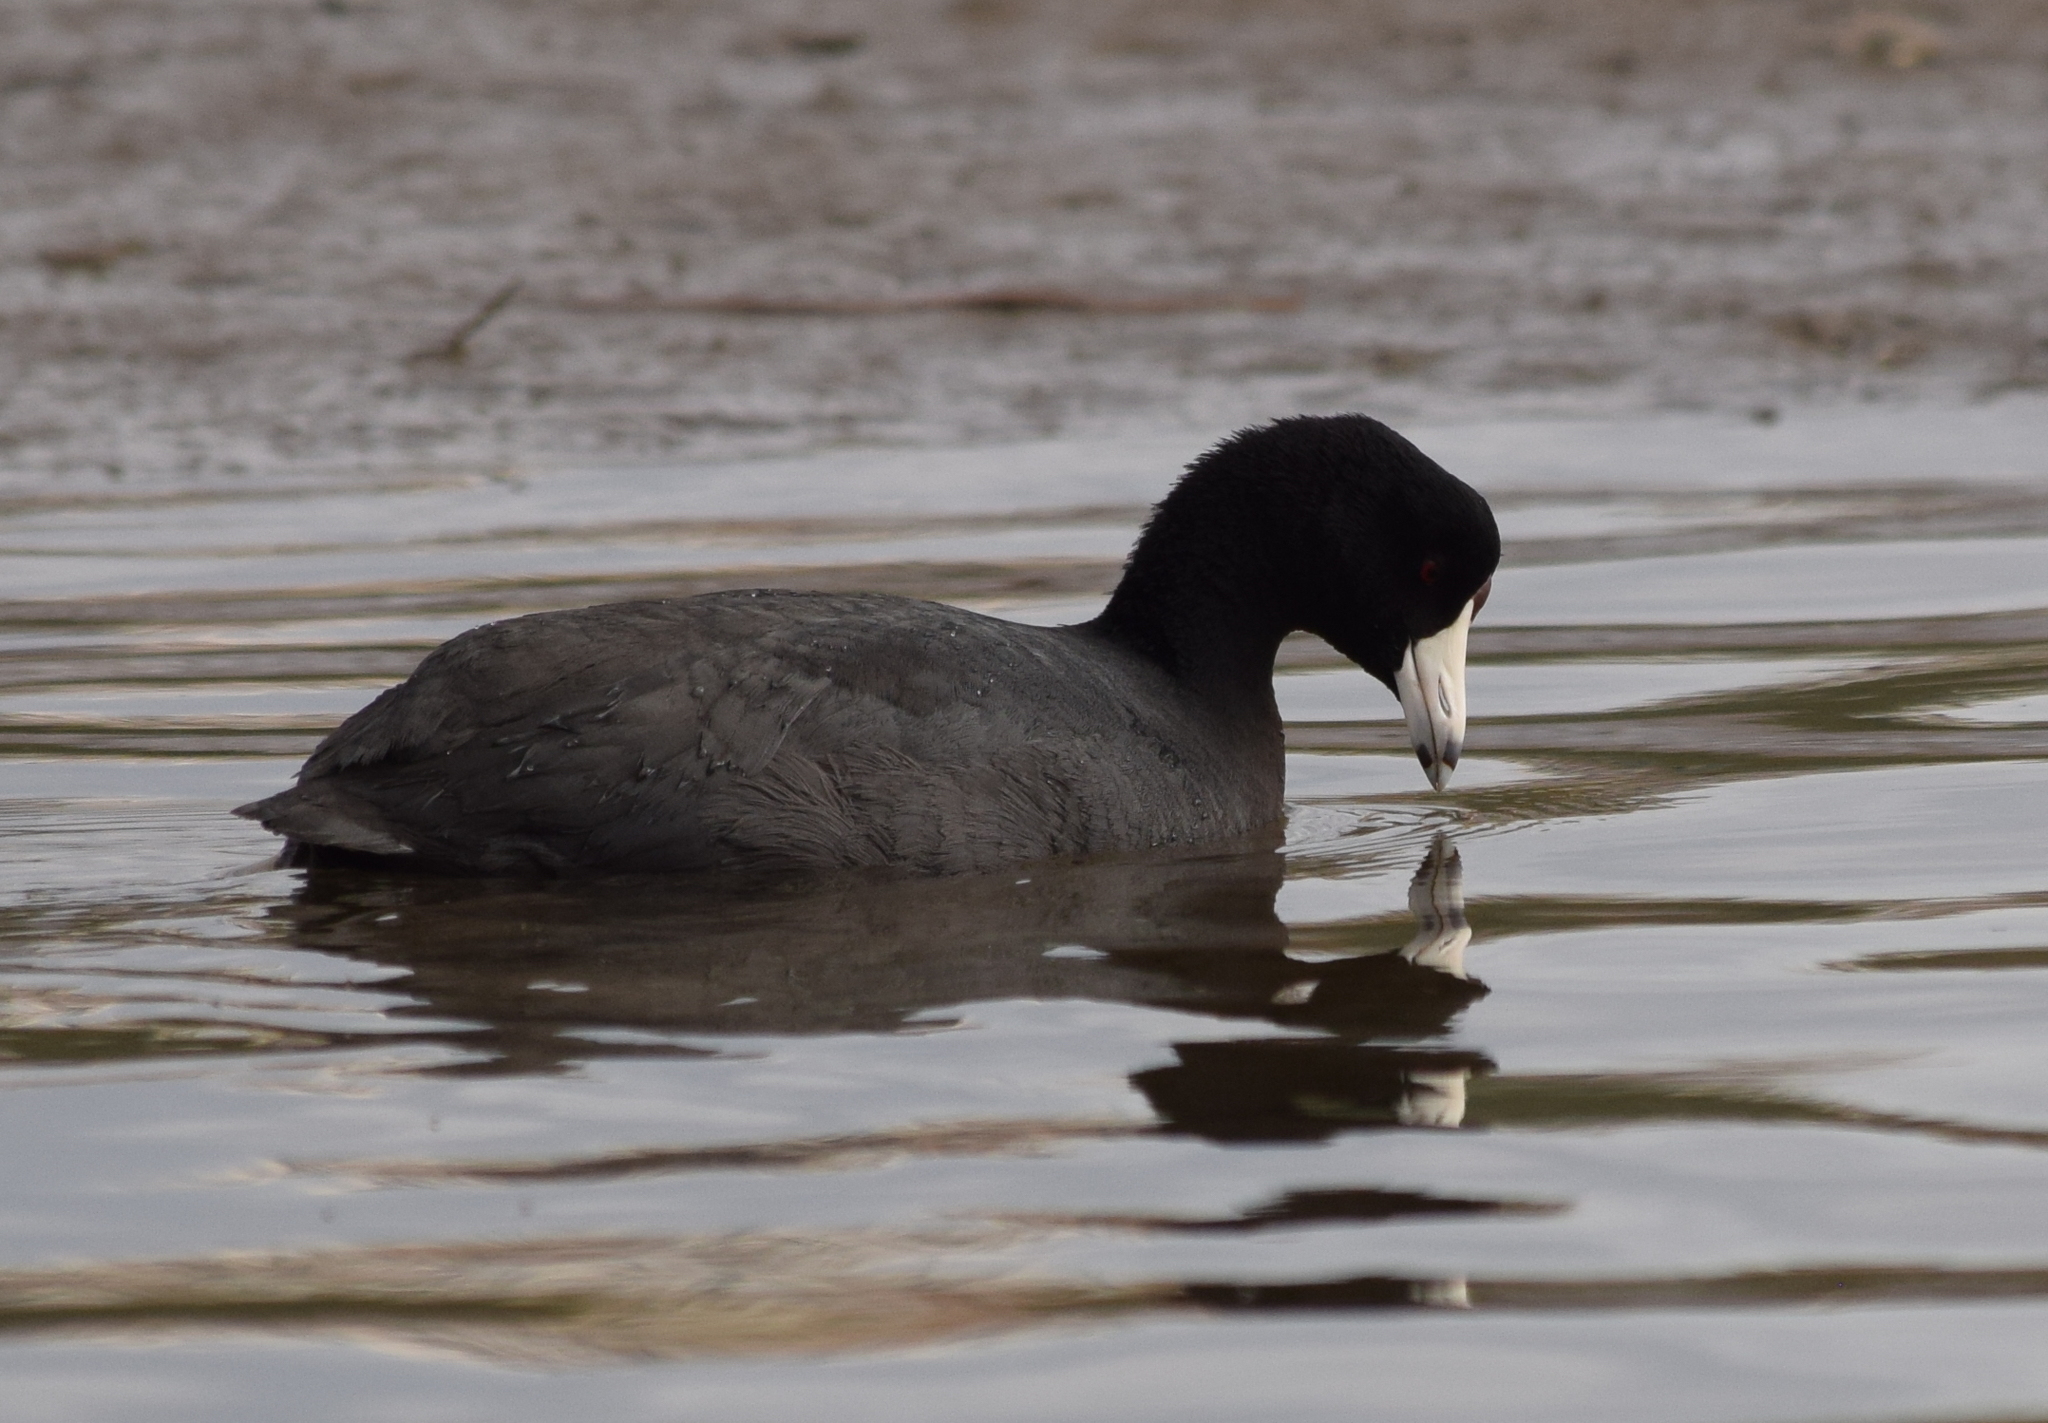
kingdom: Animalia
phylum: Chordata
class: Aves
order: Gruiformes
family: Rallidae
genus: Fulica
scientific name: Fulica americana
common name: American coot
